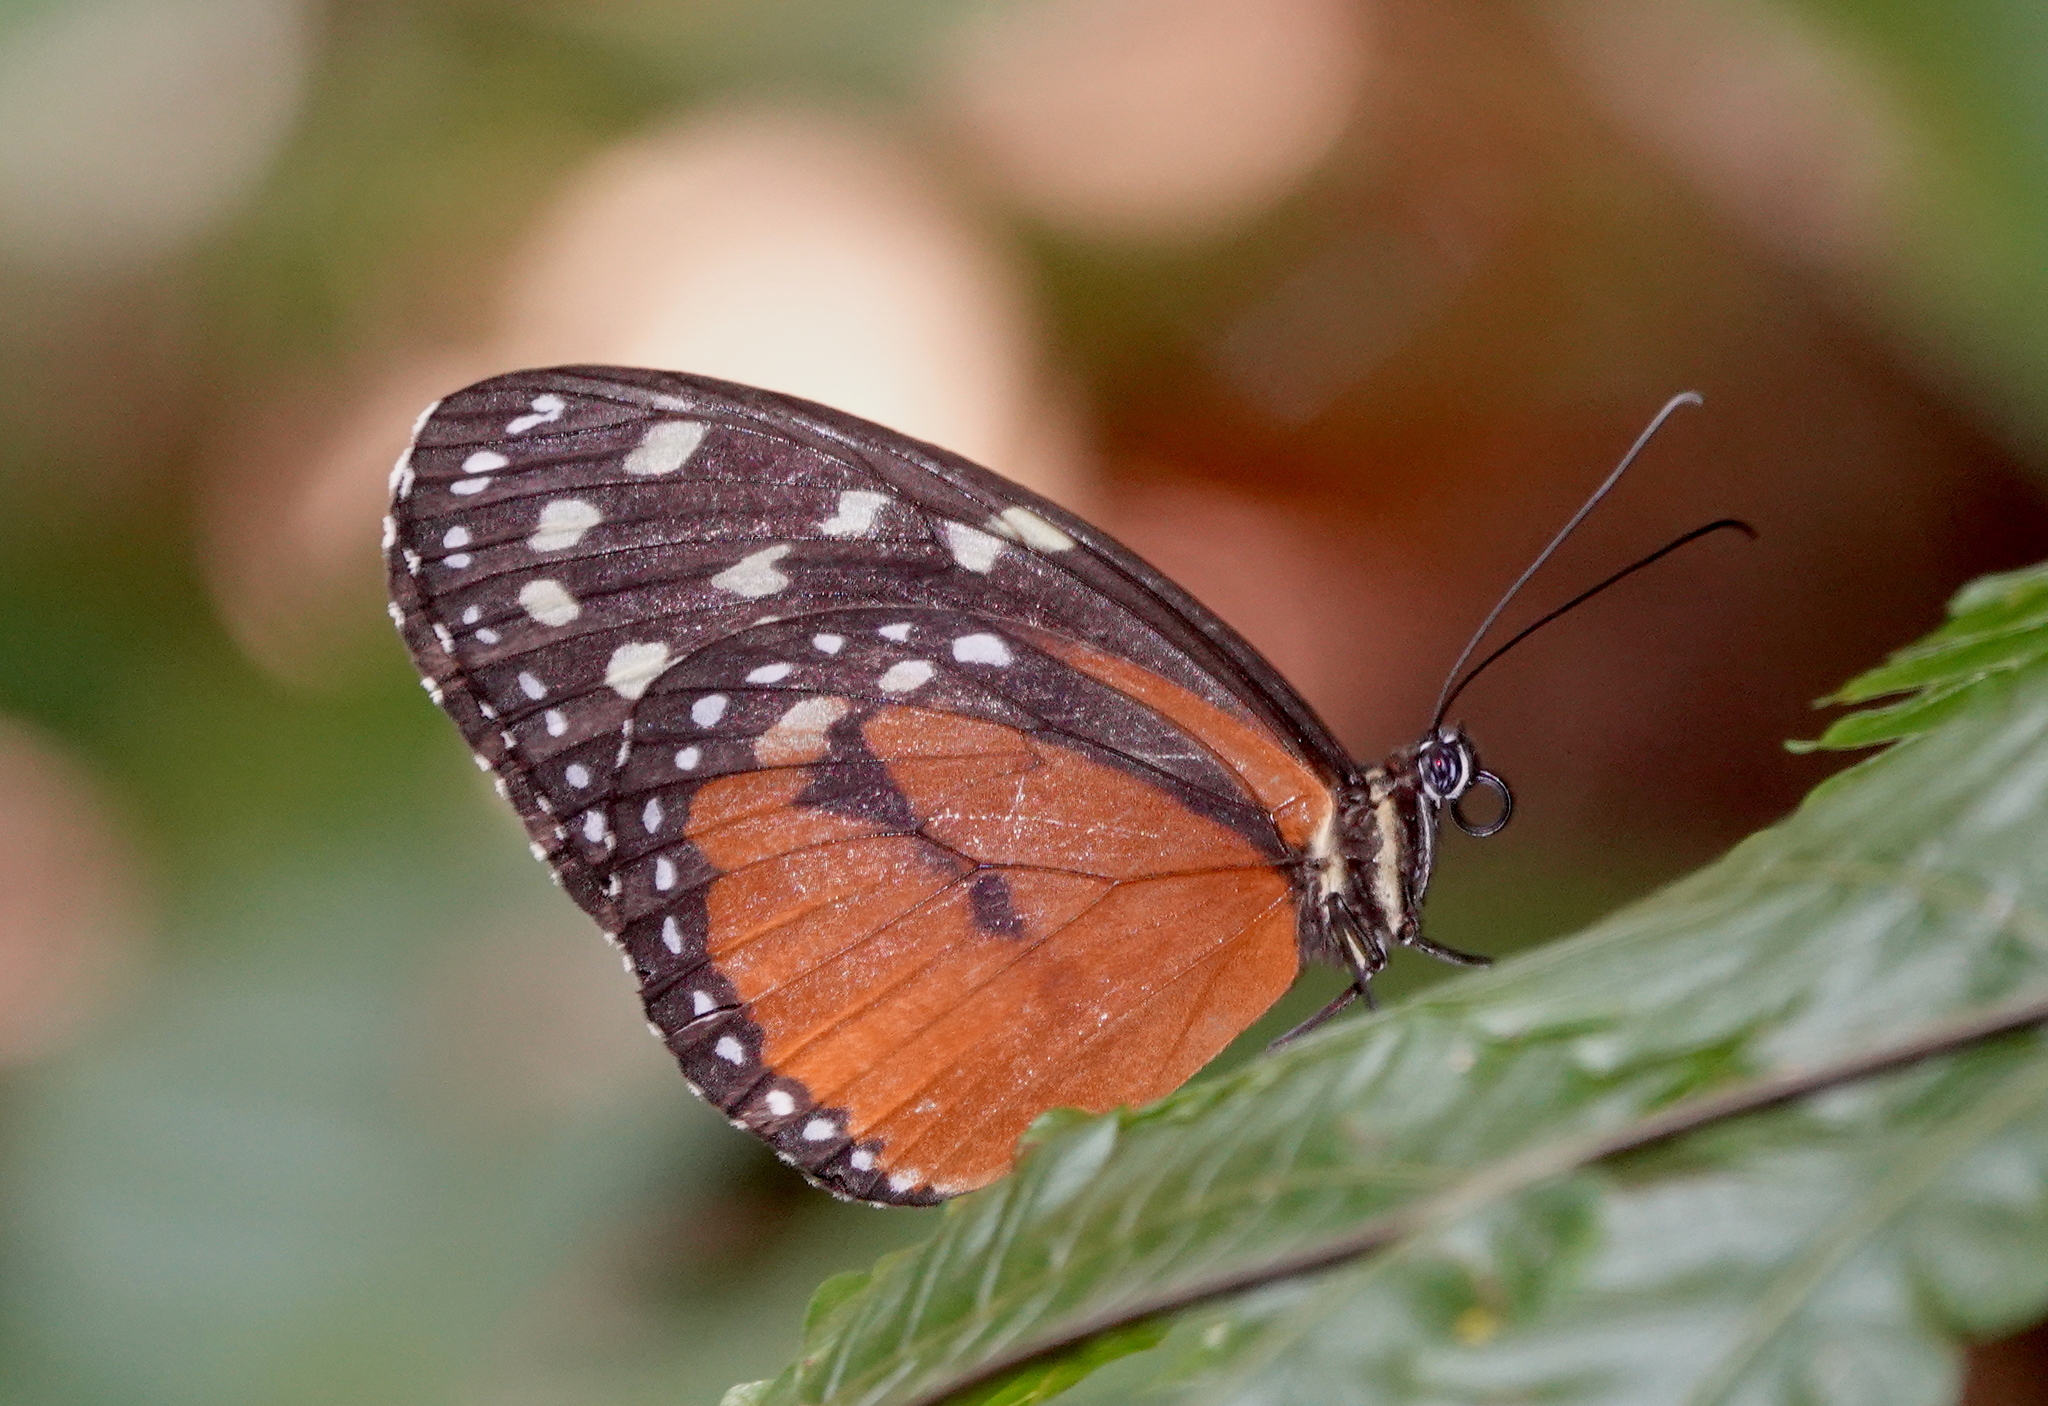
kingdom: Animalia
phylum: Arthropoda
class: Insecta
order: Lepidoptera
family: Nymphalidae
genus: Tithorea
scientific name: Tithorea tarricina
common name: Cream-spotted tigerwing
